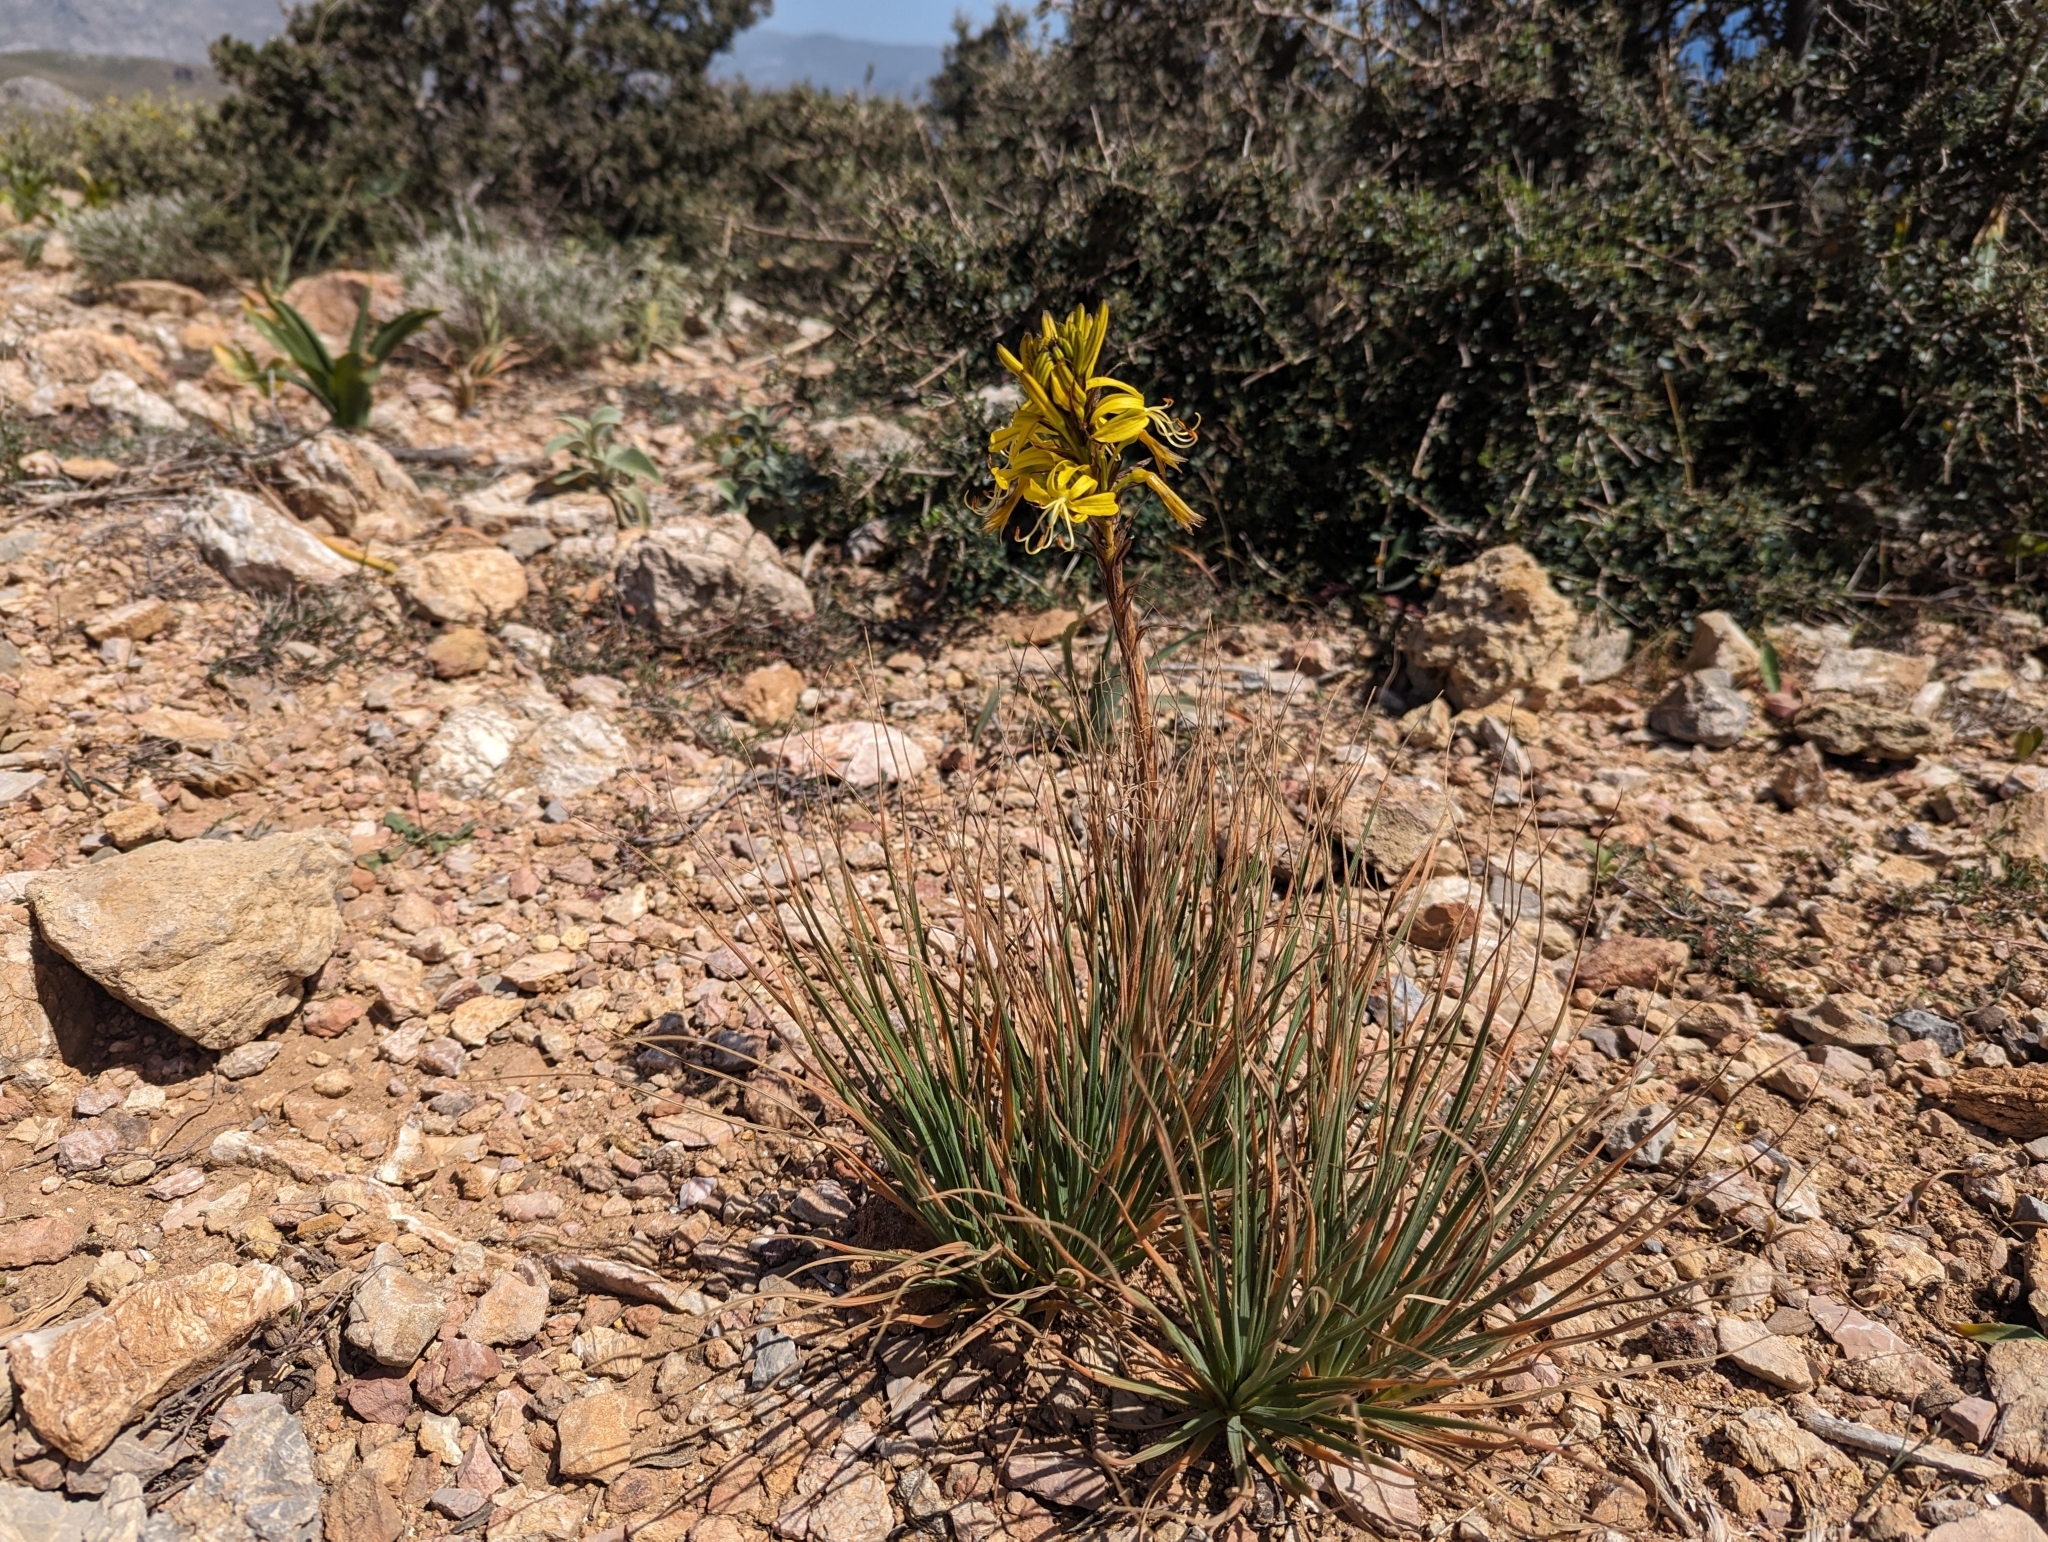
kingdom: Plantae
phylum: Tracheophyta
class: Liliopsida
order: Asparagales
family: Asphodelaceae
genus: Asphodeline
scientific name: Asphodeline lutea
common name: Yellow asphodel
